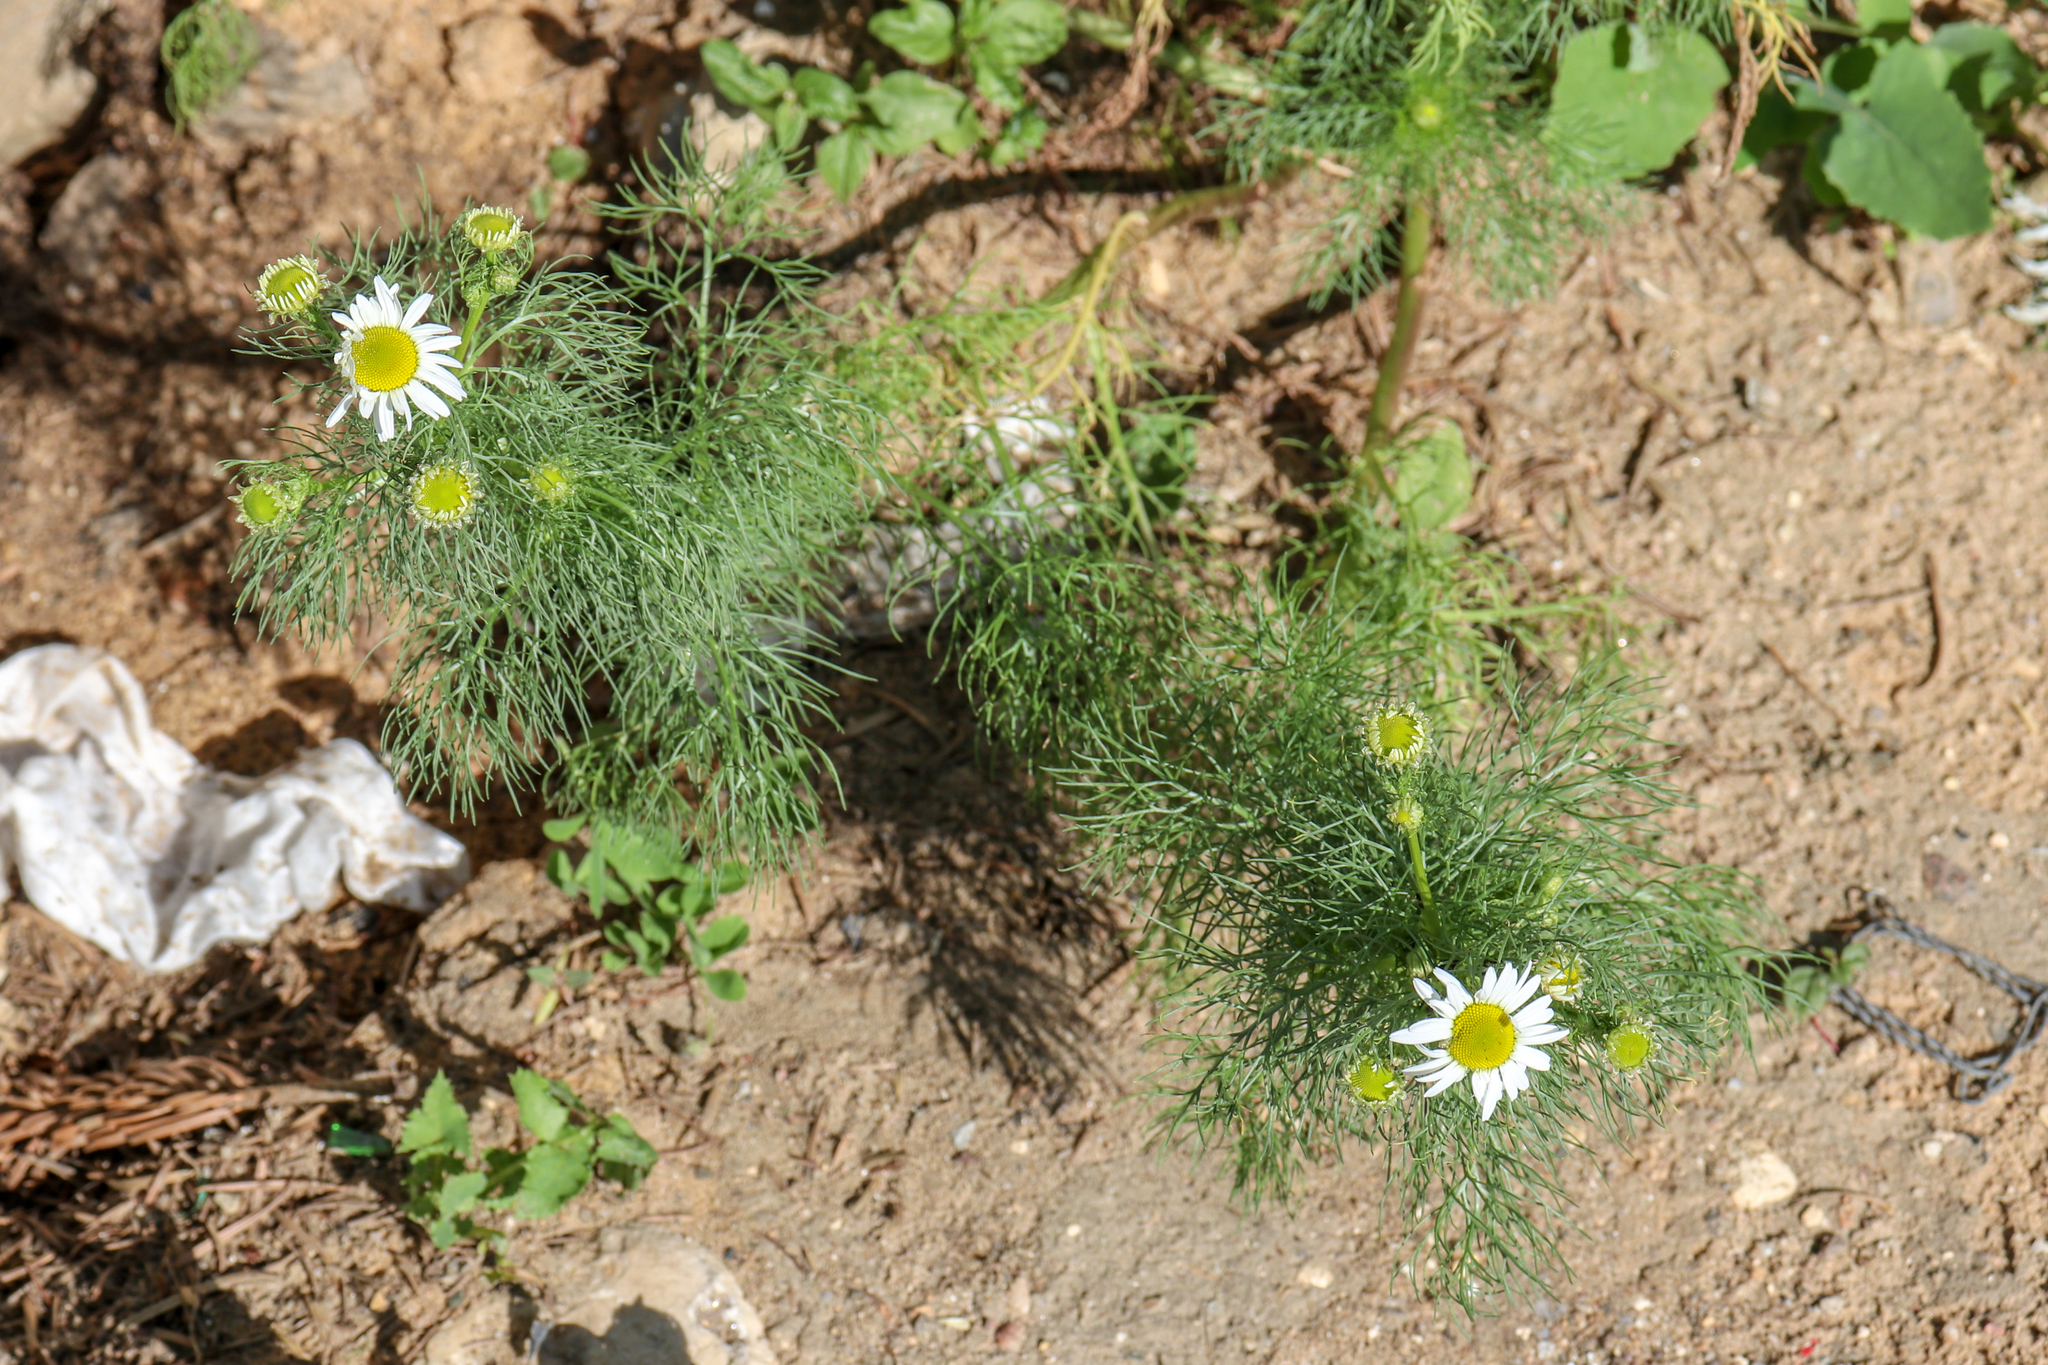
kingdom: Plantae
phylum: Tracheophyta
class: Magnoliopsida
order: Asterales
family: Asteraceae
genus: Tripleurospermum
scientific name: Tripleurospermum inodorum
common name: Scentless mayweed
